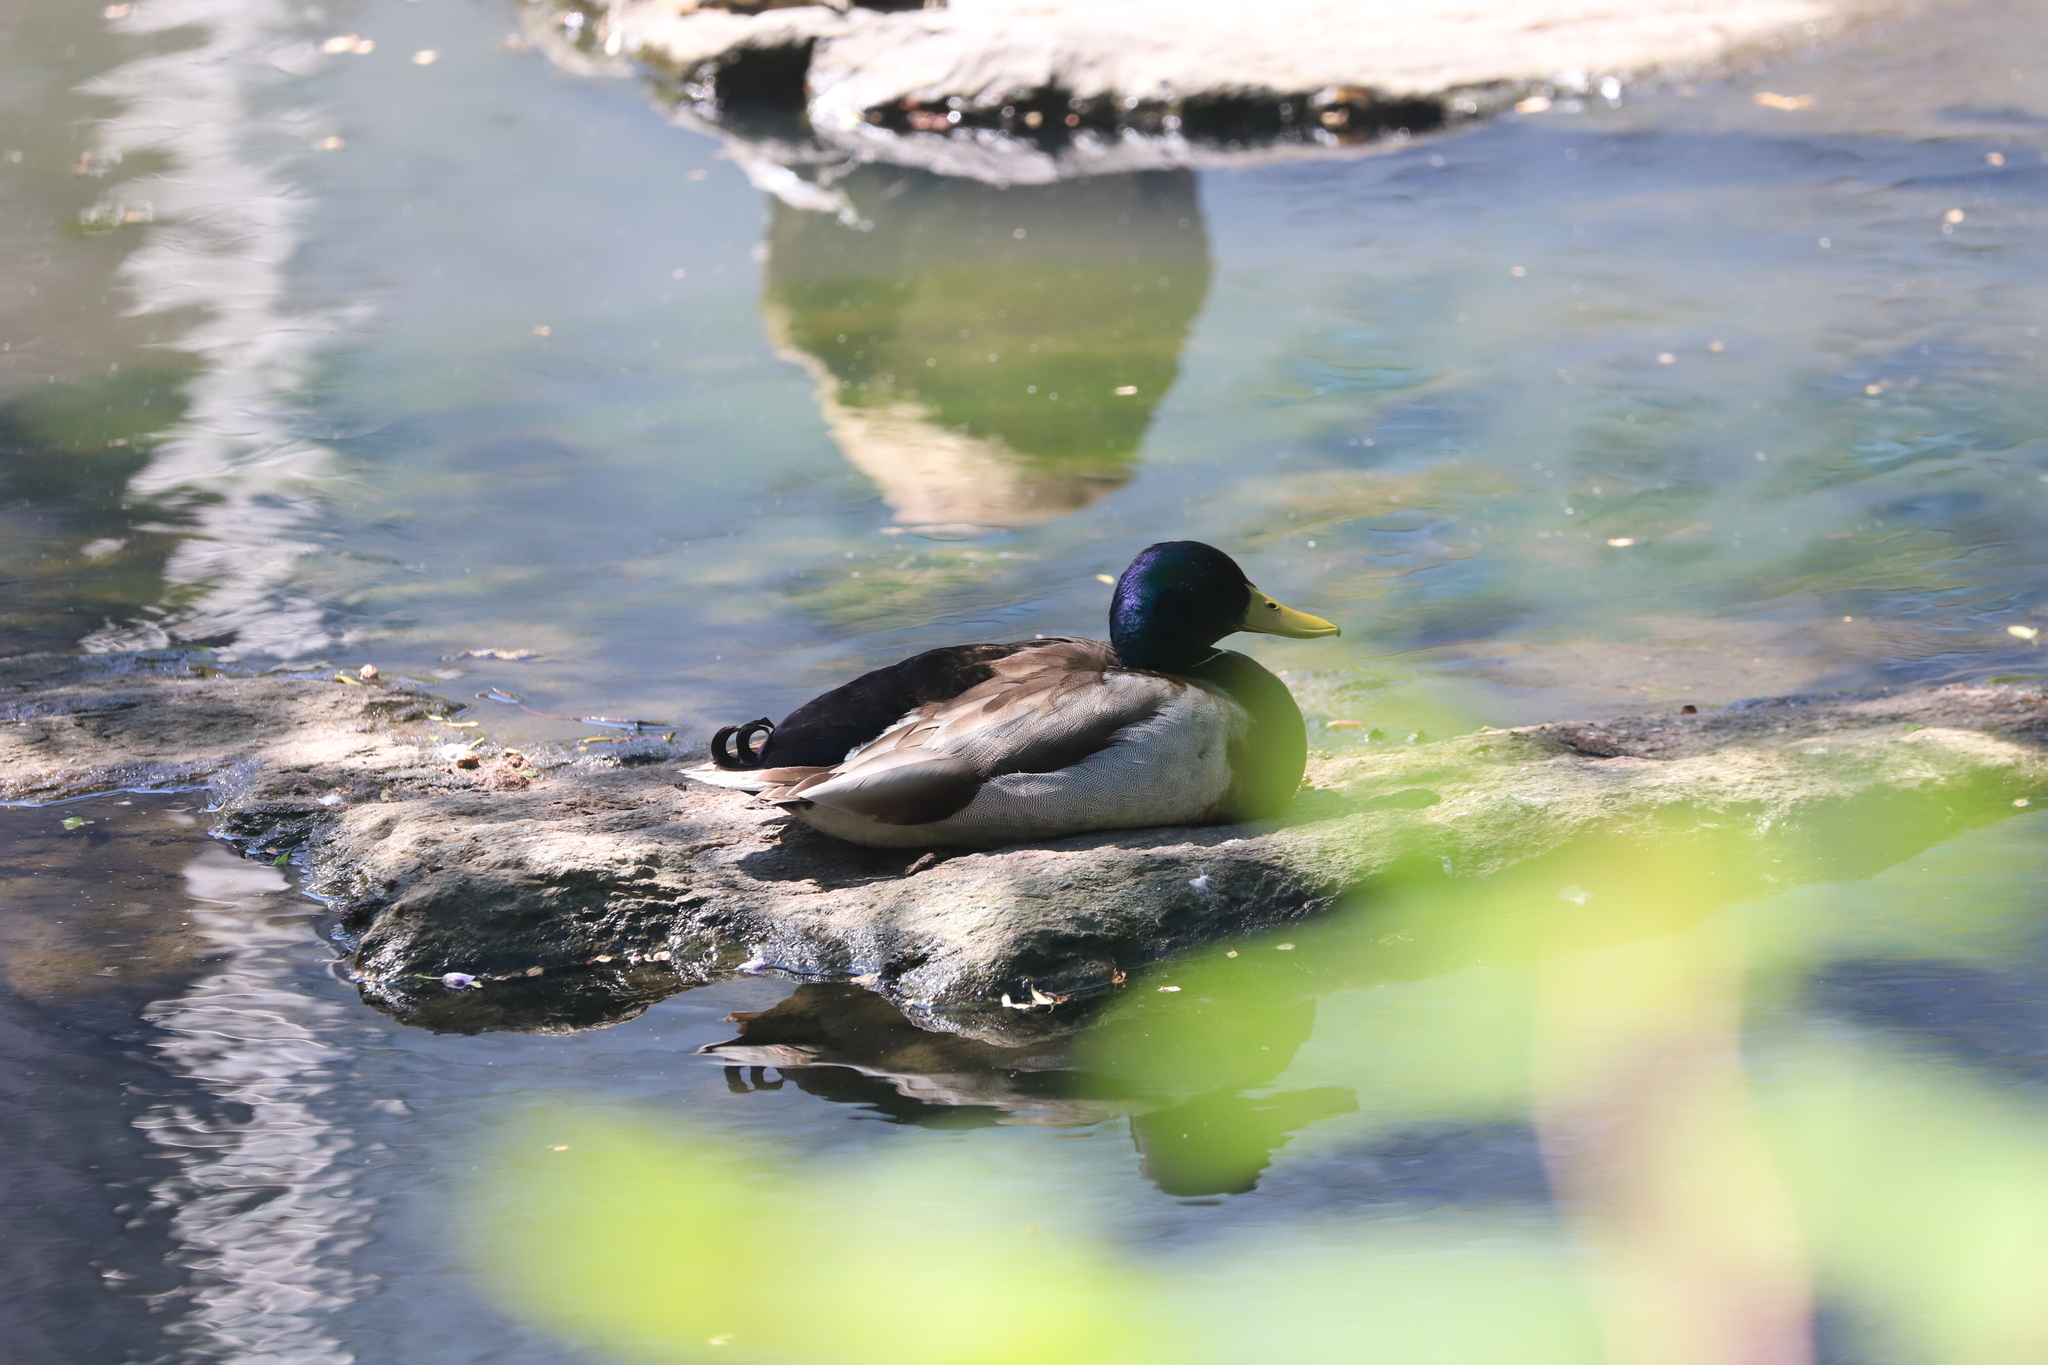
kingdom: Animalia
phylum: Chordata
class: Aves
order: Anseriformes
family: Anatidae
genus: Anas
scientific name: Anas platyrhynchos
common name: Mallard
